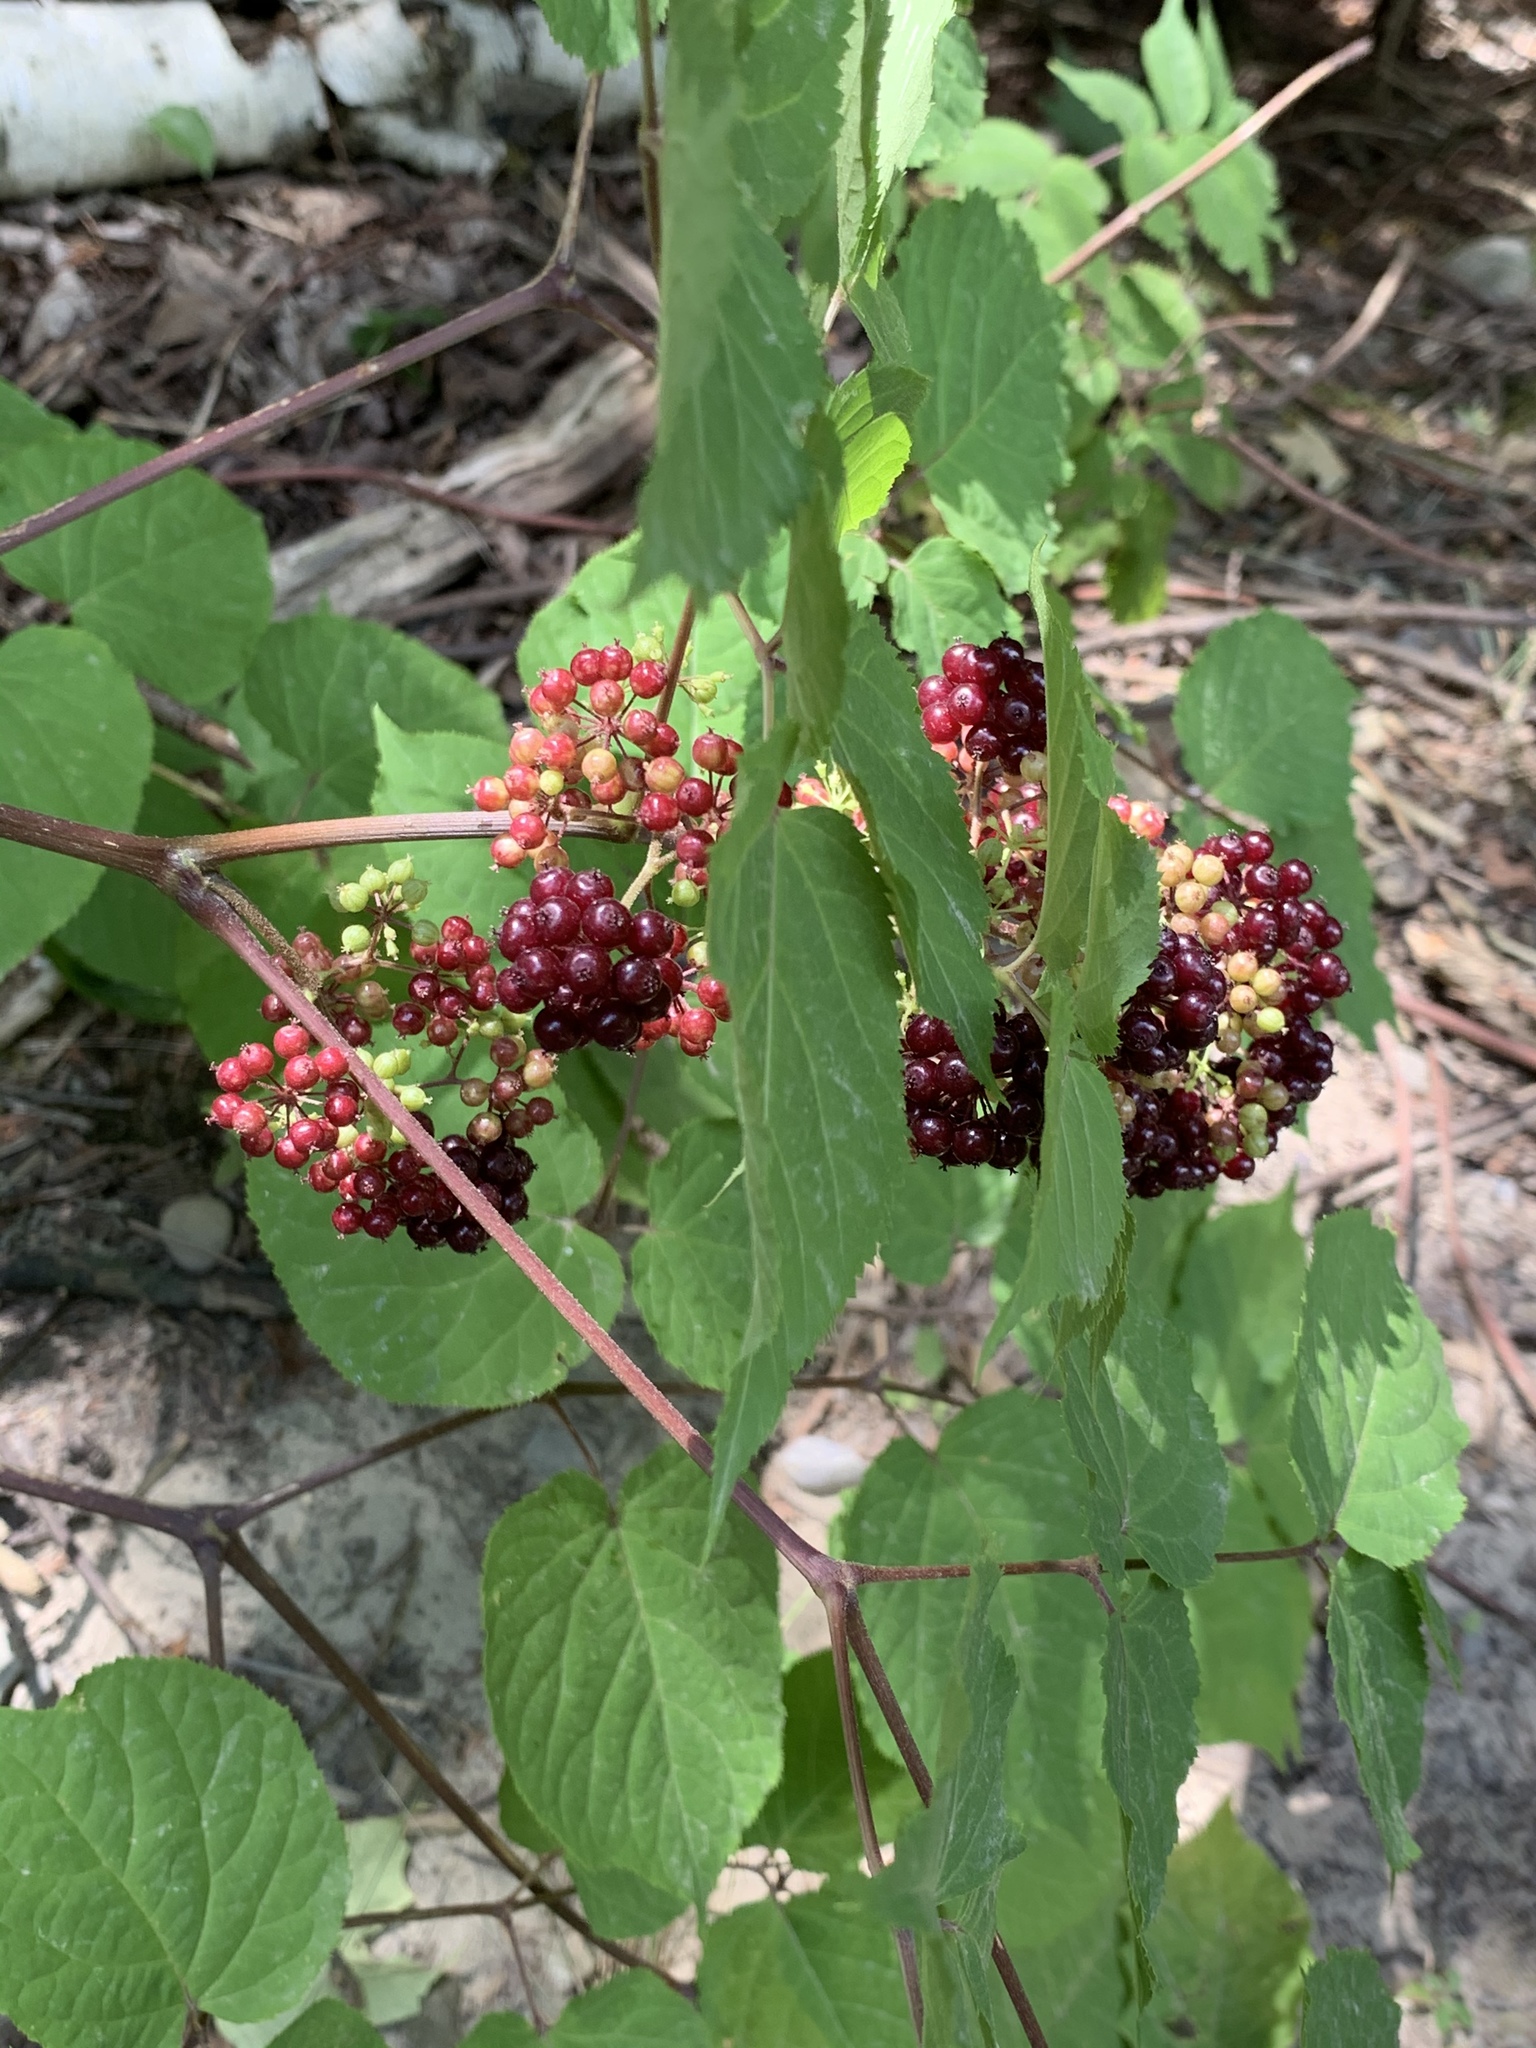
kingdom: Plantae
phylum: Tracheophyta
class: Magnoliopsida
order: Apiales
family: Araliaceae
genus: Aralia
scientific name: Aralia racemosa
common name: American-spikenard
